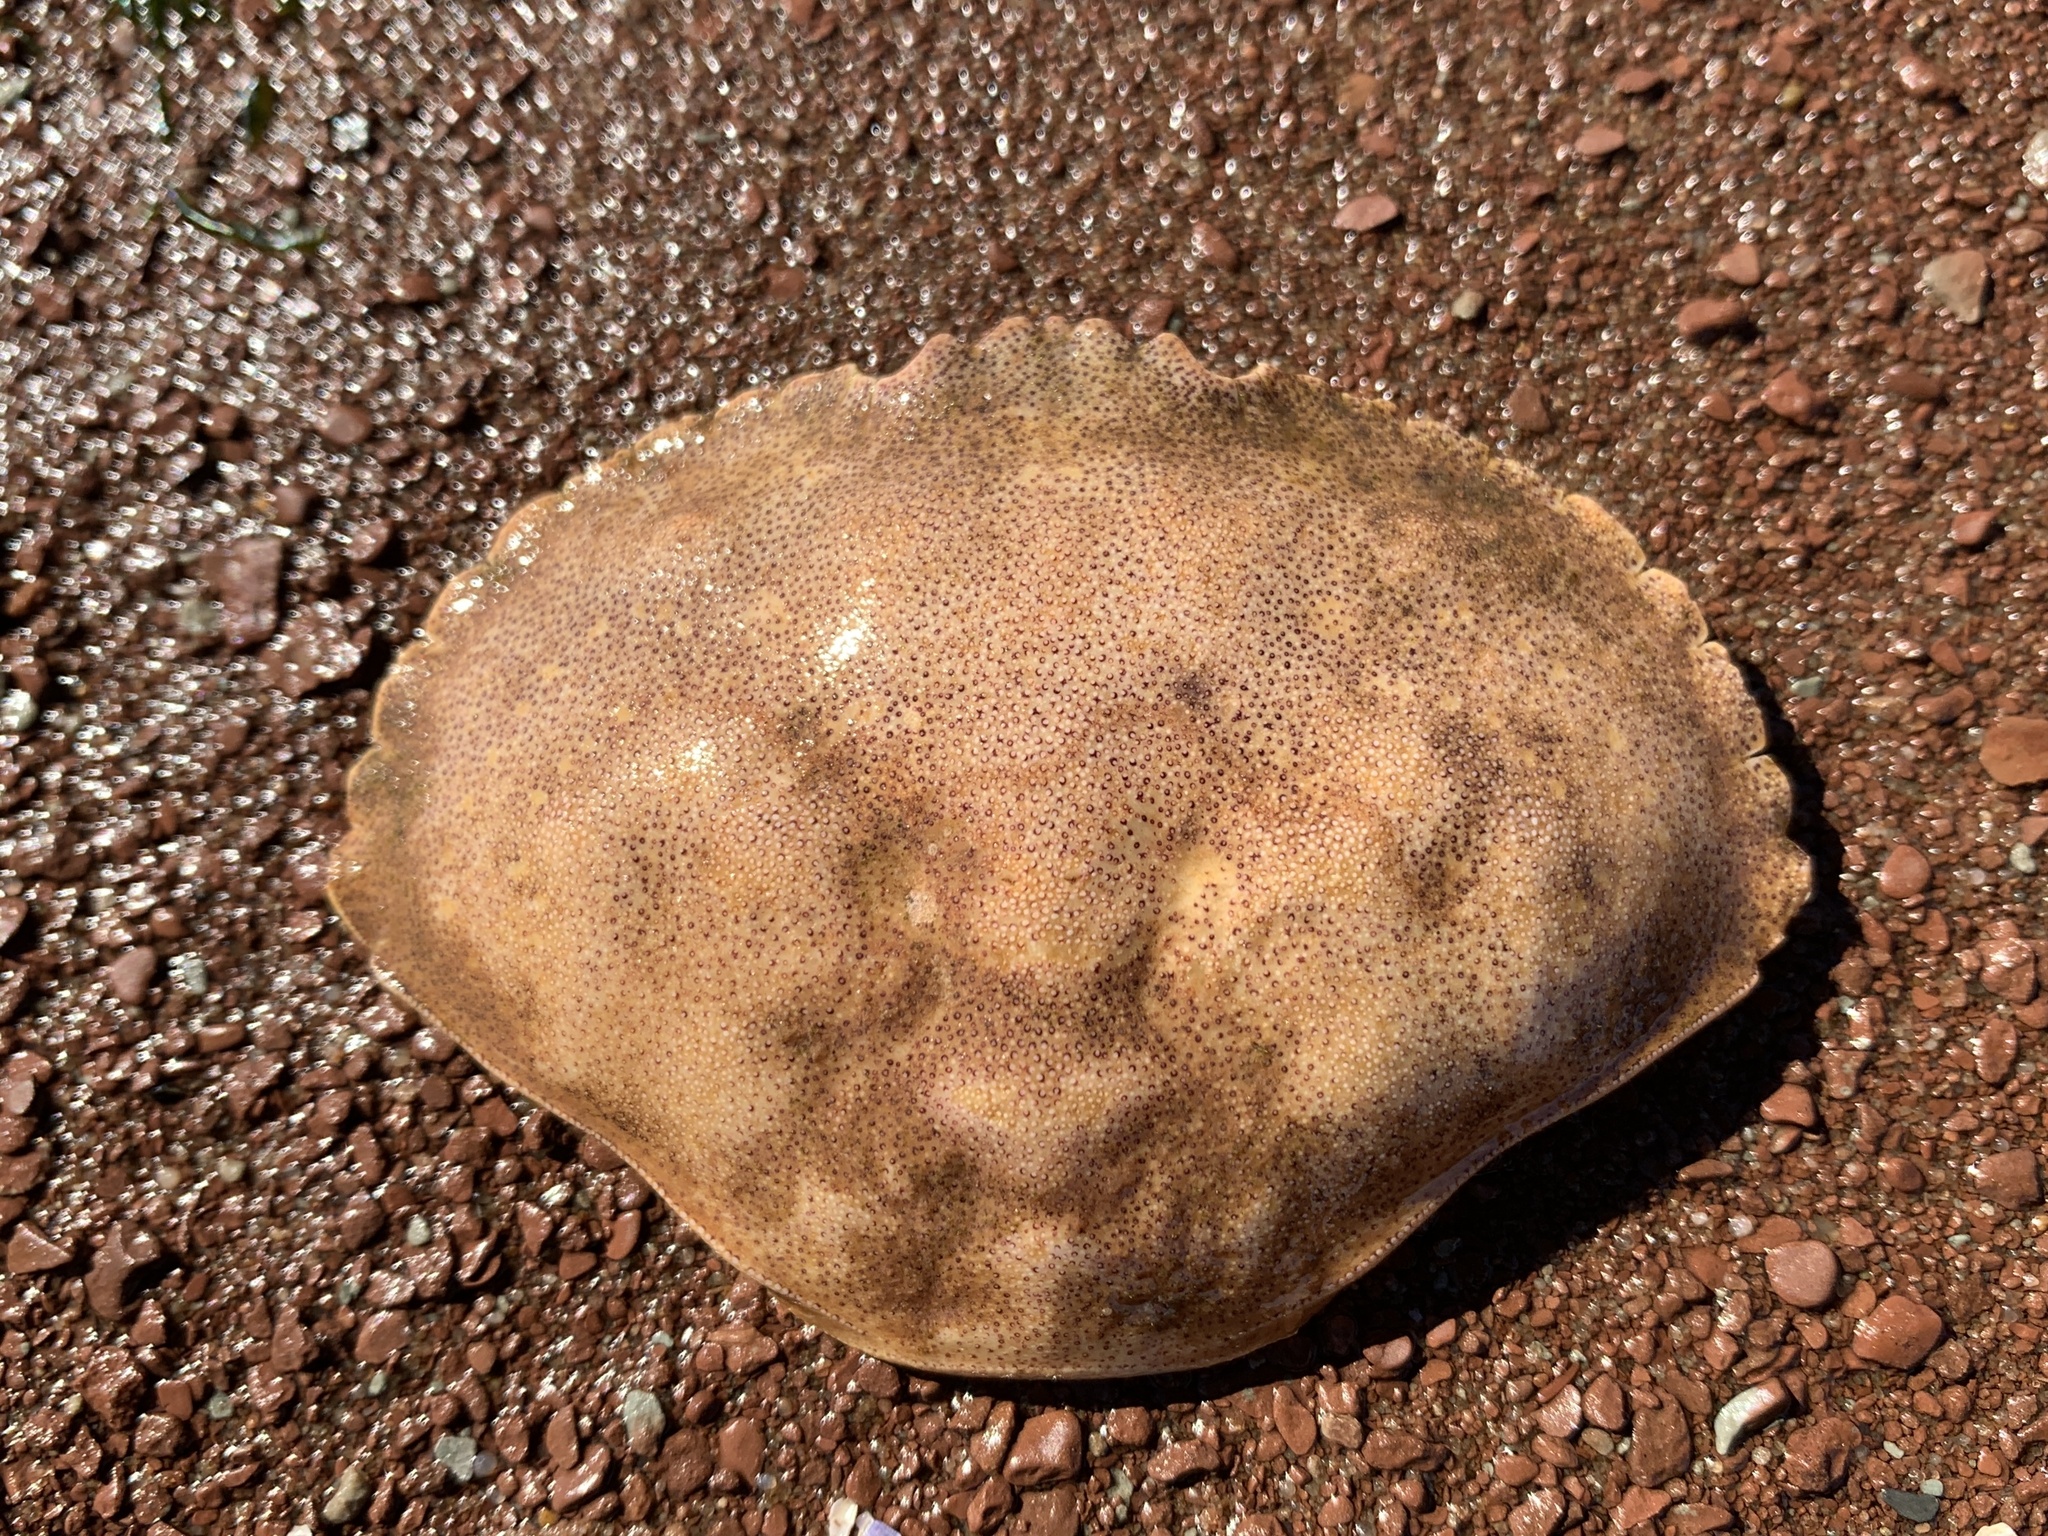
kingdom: Animalia
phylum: Arthropoda
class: Malacostraca
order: Decapoda
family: Cancridae
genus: Cancer
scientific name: Cancer irroratus
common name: Atlantic rock crab
